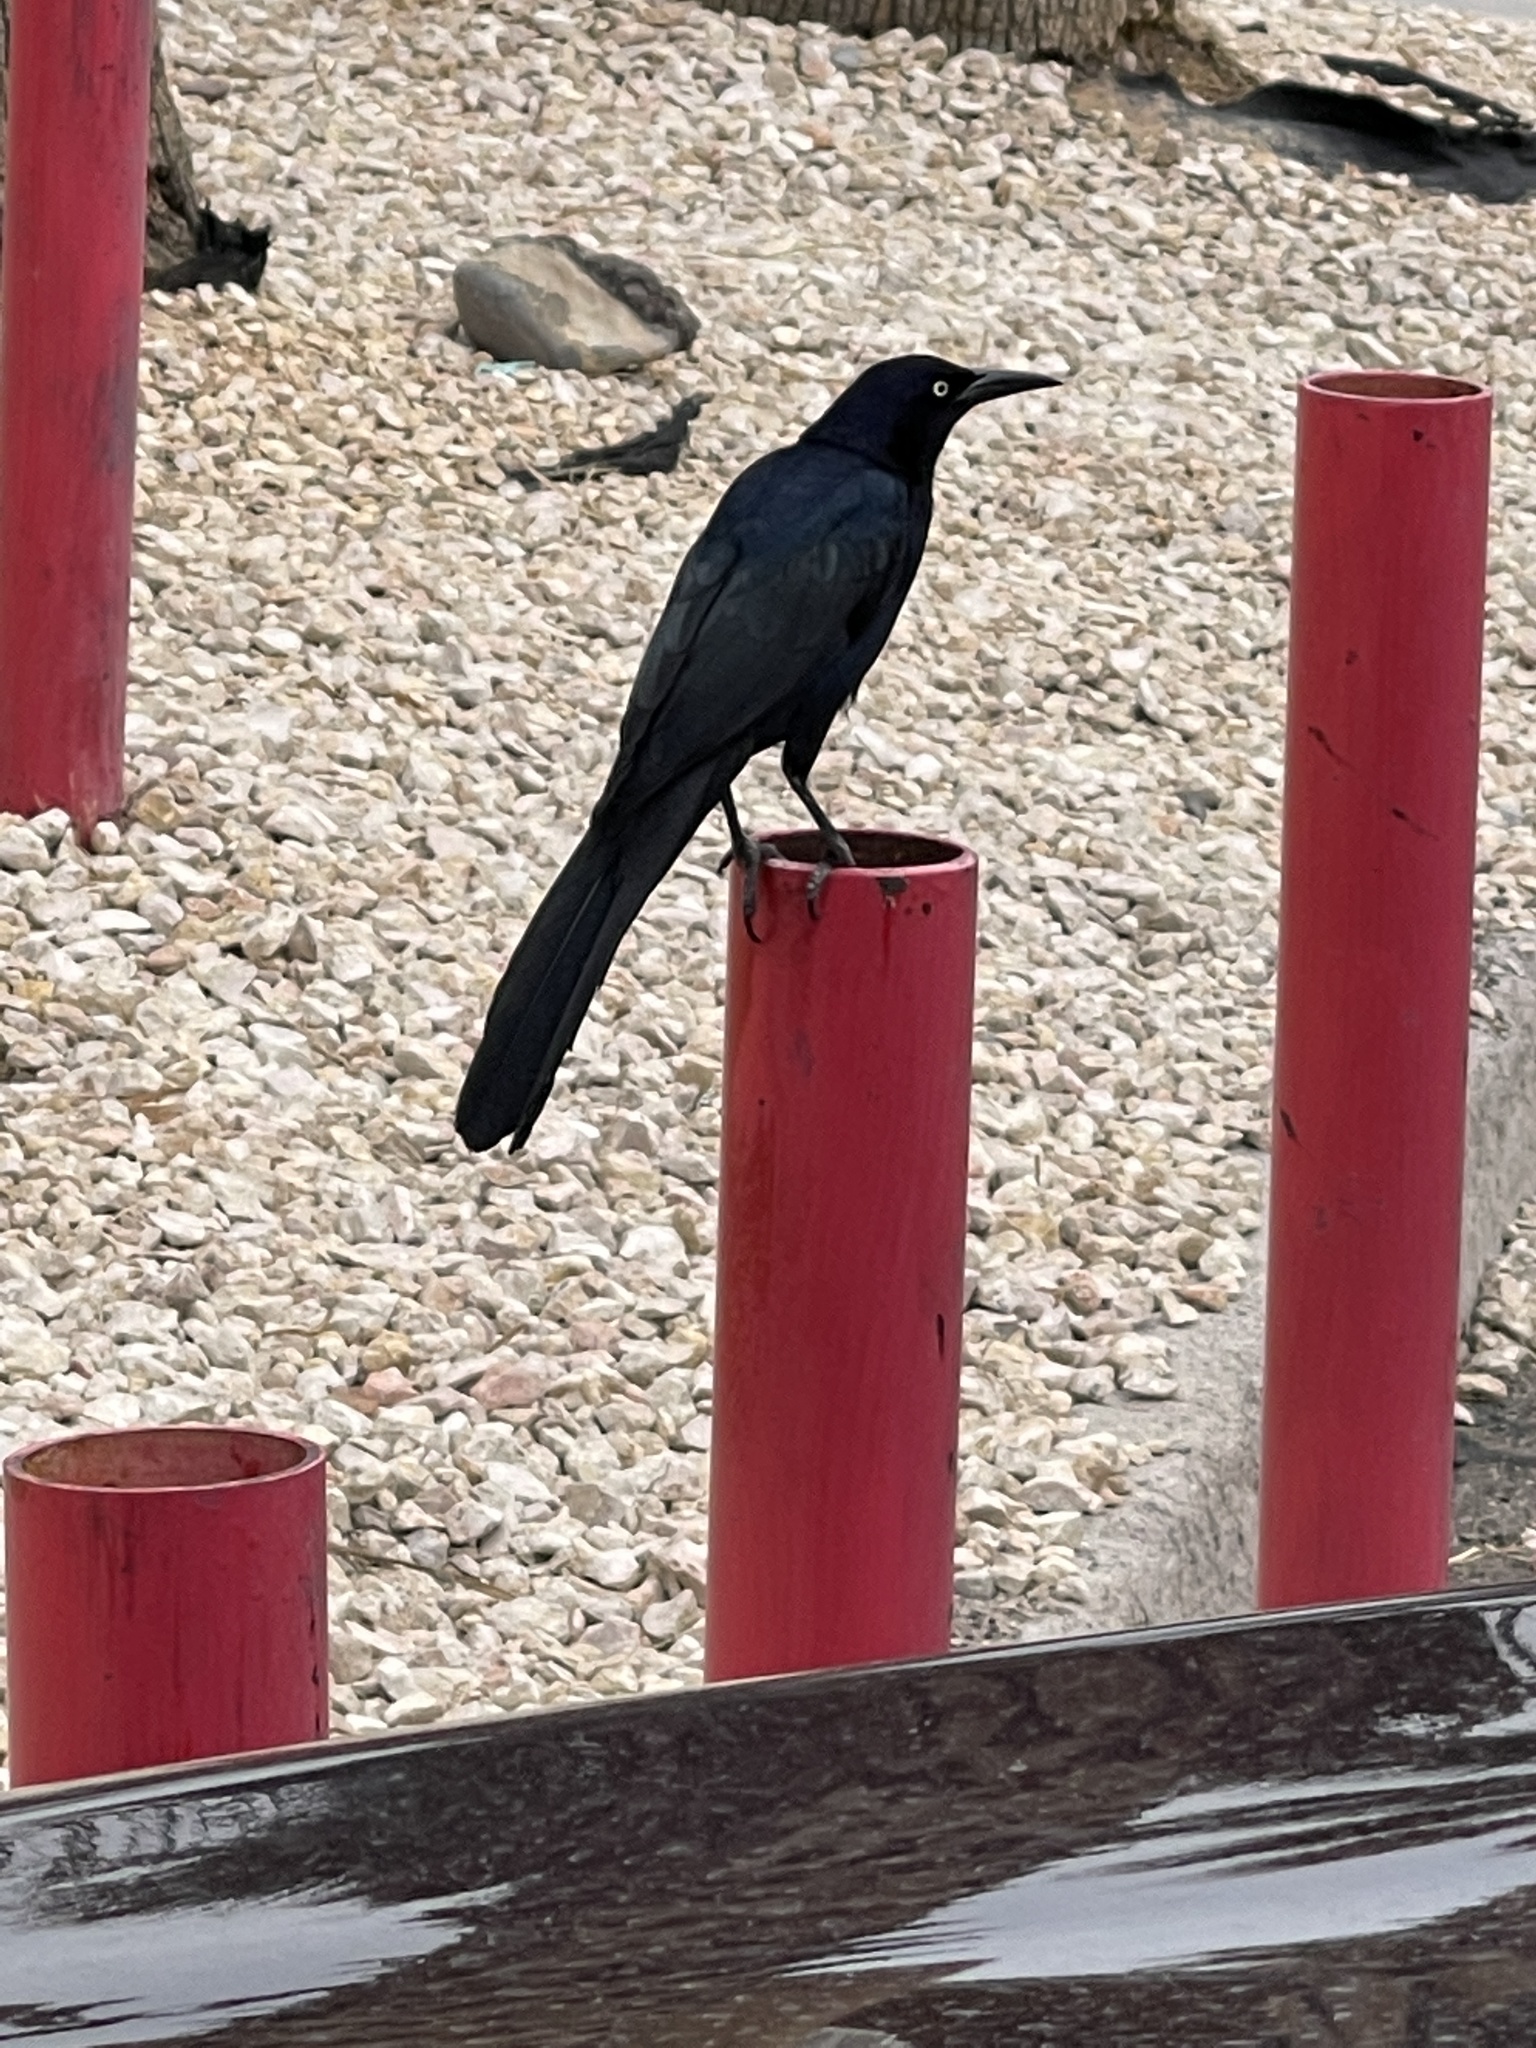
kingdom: Animalia
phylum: Chordata
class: Aves
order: Passeriformes
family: Icteridae
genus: Quiscalus
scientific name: Quiscalus mexicanus
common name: Great-tailed grackle
